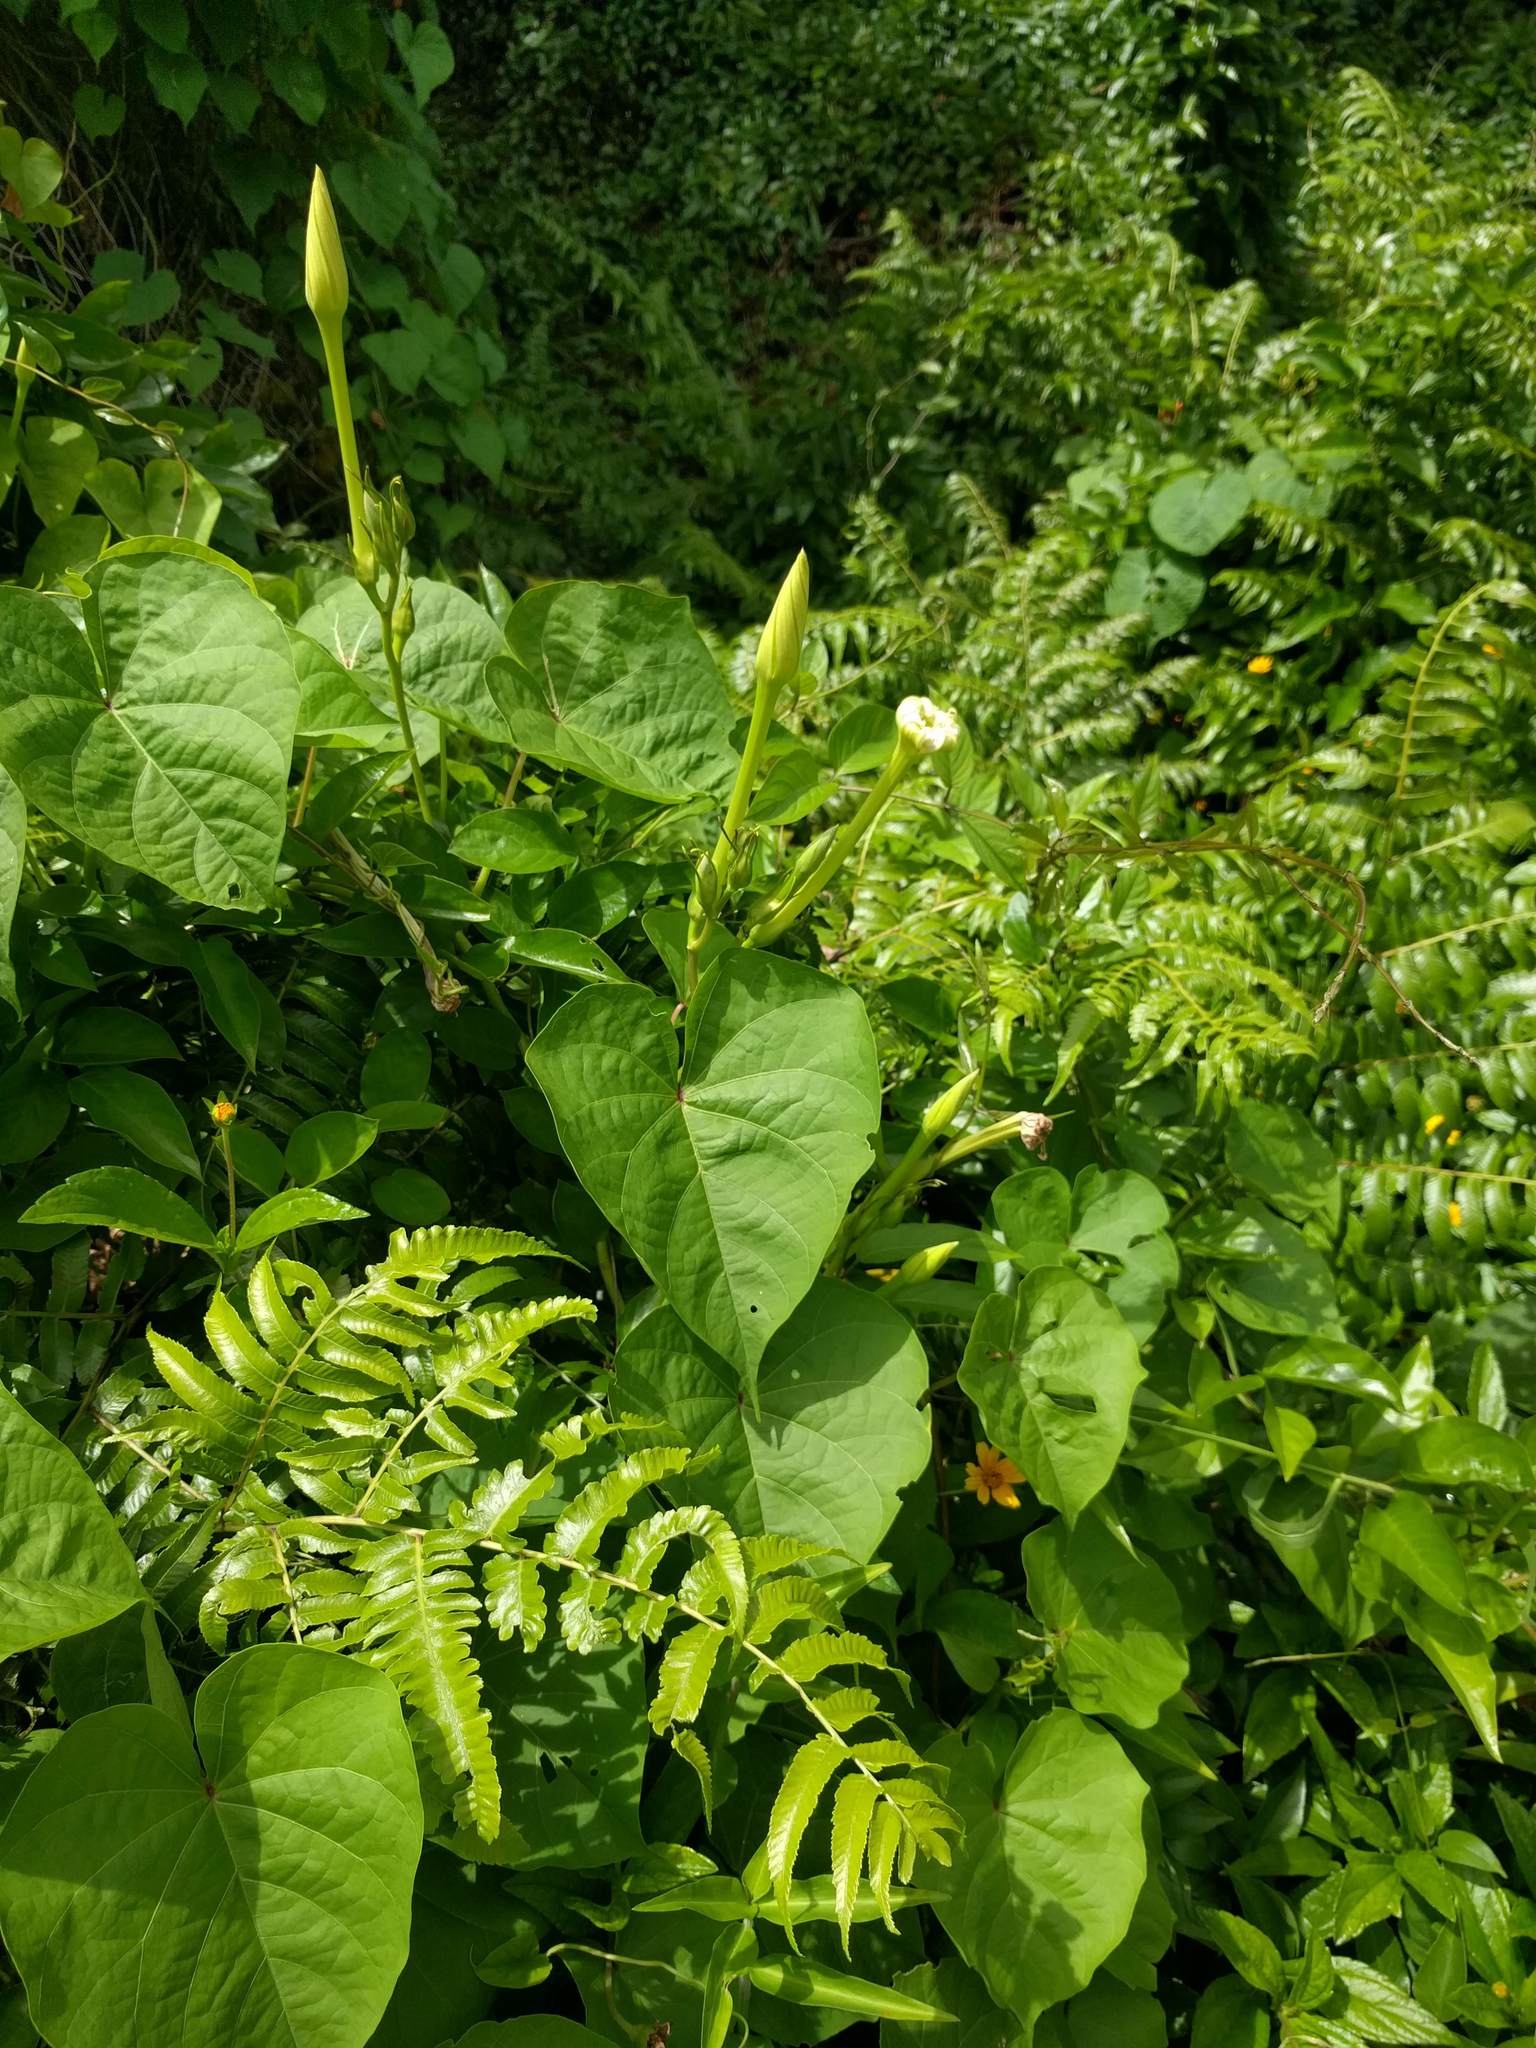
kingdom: Plantae
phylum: Tracheophyta
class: Magnoliopsida
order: Solanales
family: Convolvulaceae
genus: Ipomoea
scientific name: Ipomoea alba
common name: Moonflower
